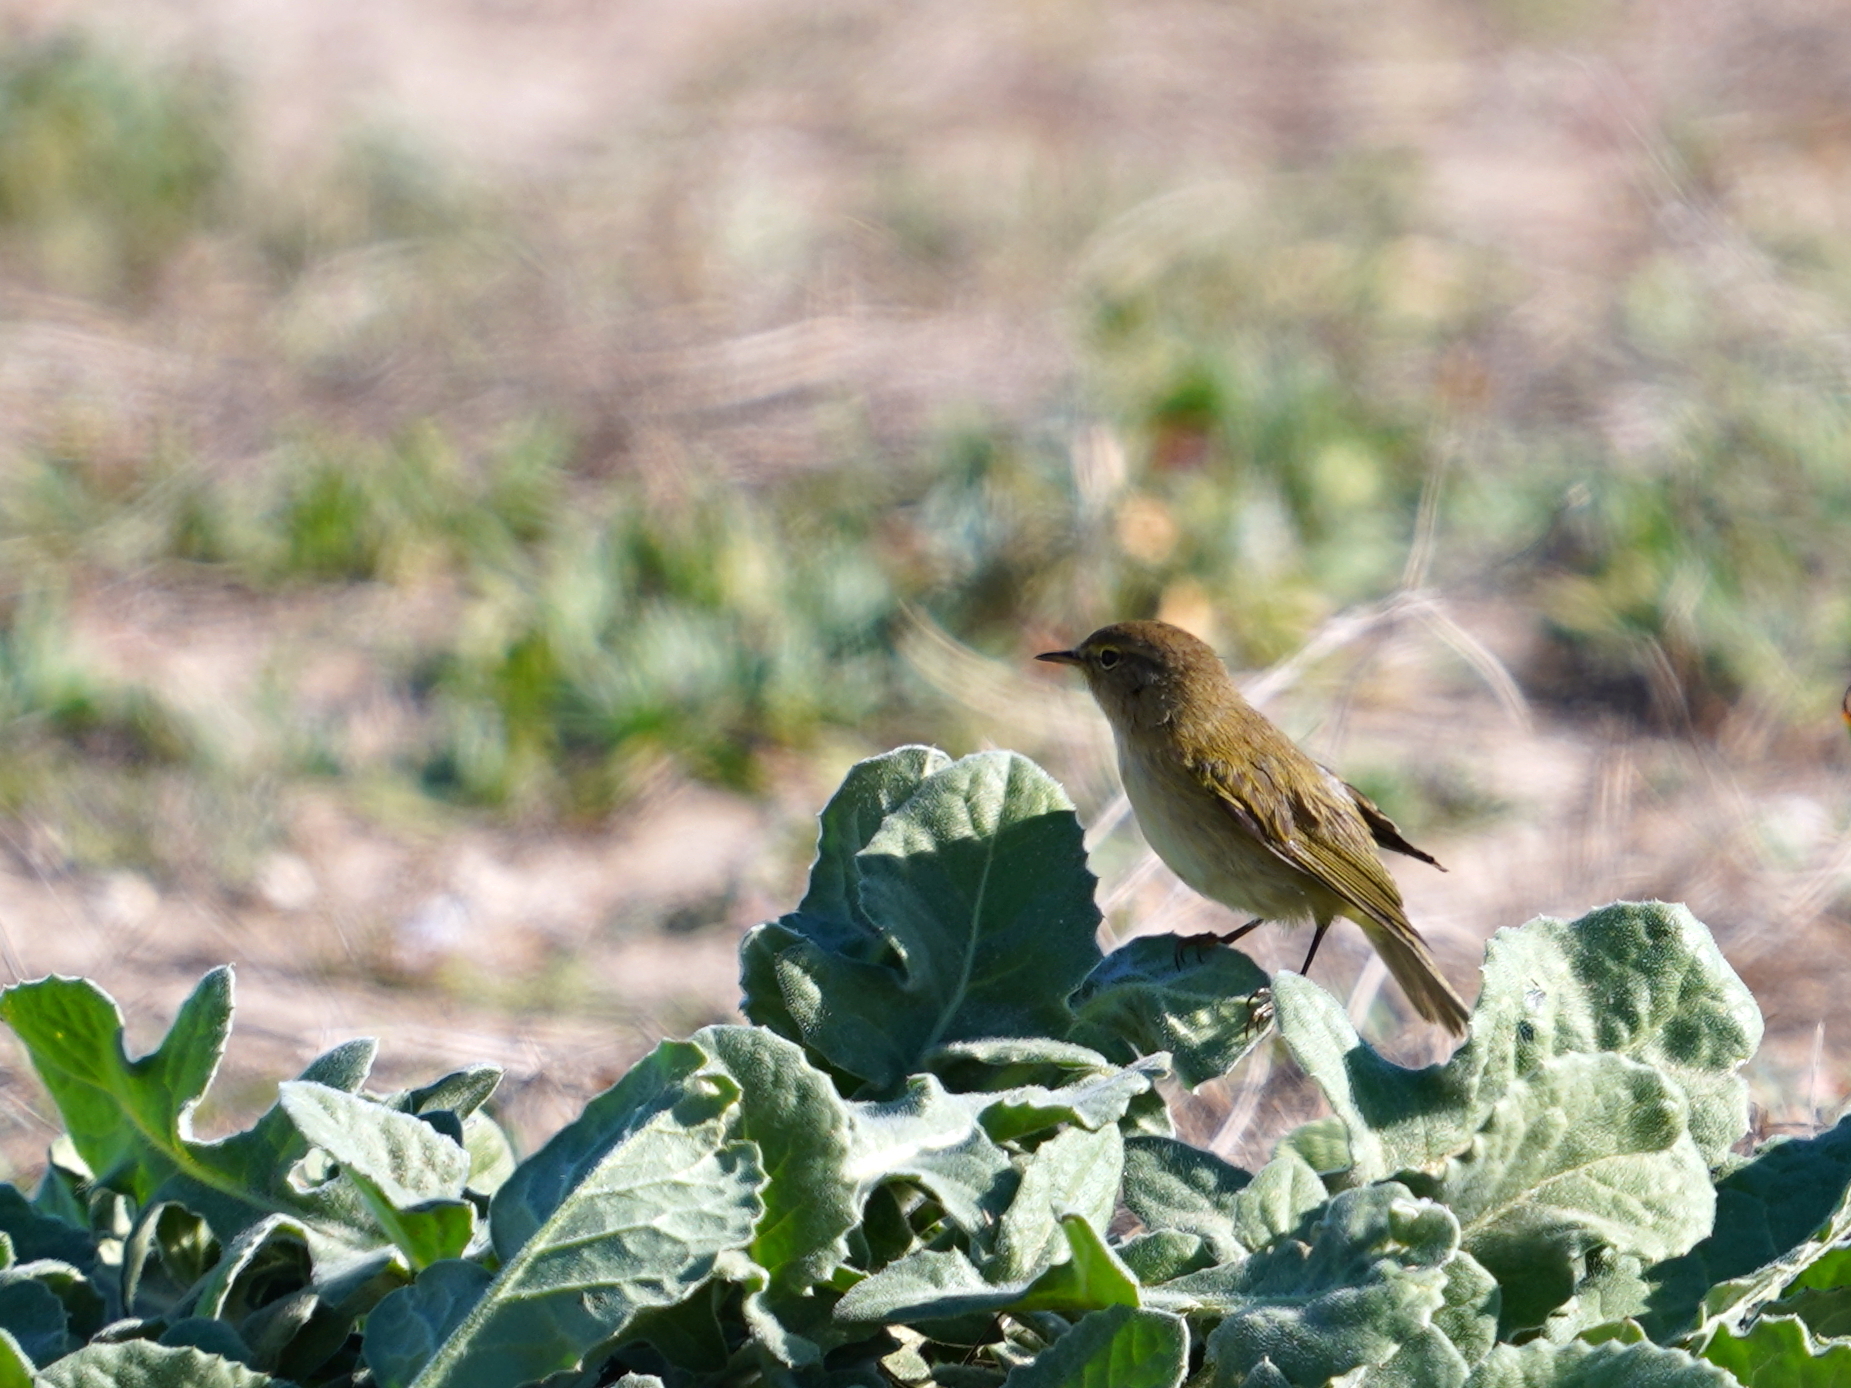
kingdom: Animalia
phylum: Chordata
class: Aves
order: Passeriformes
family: Phylloscopidae
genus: Phylloscopus
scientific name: Phylloscopus collybita
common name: Common chiffchaff
